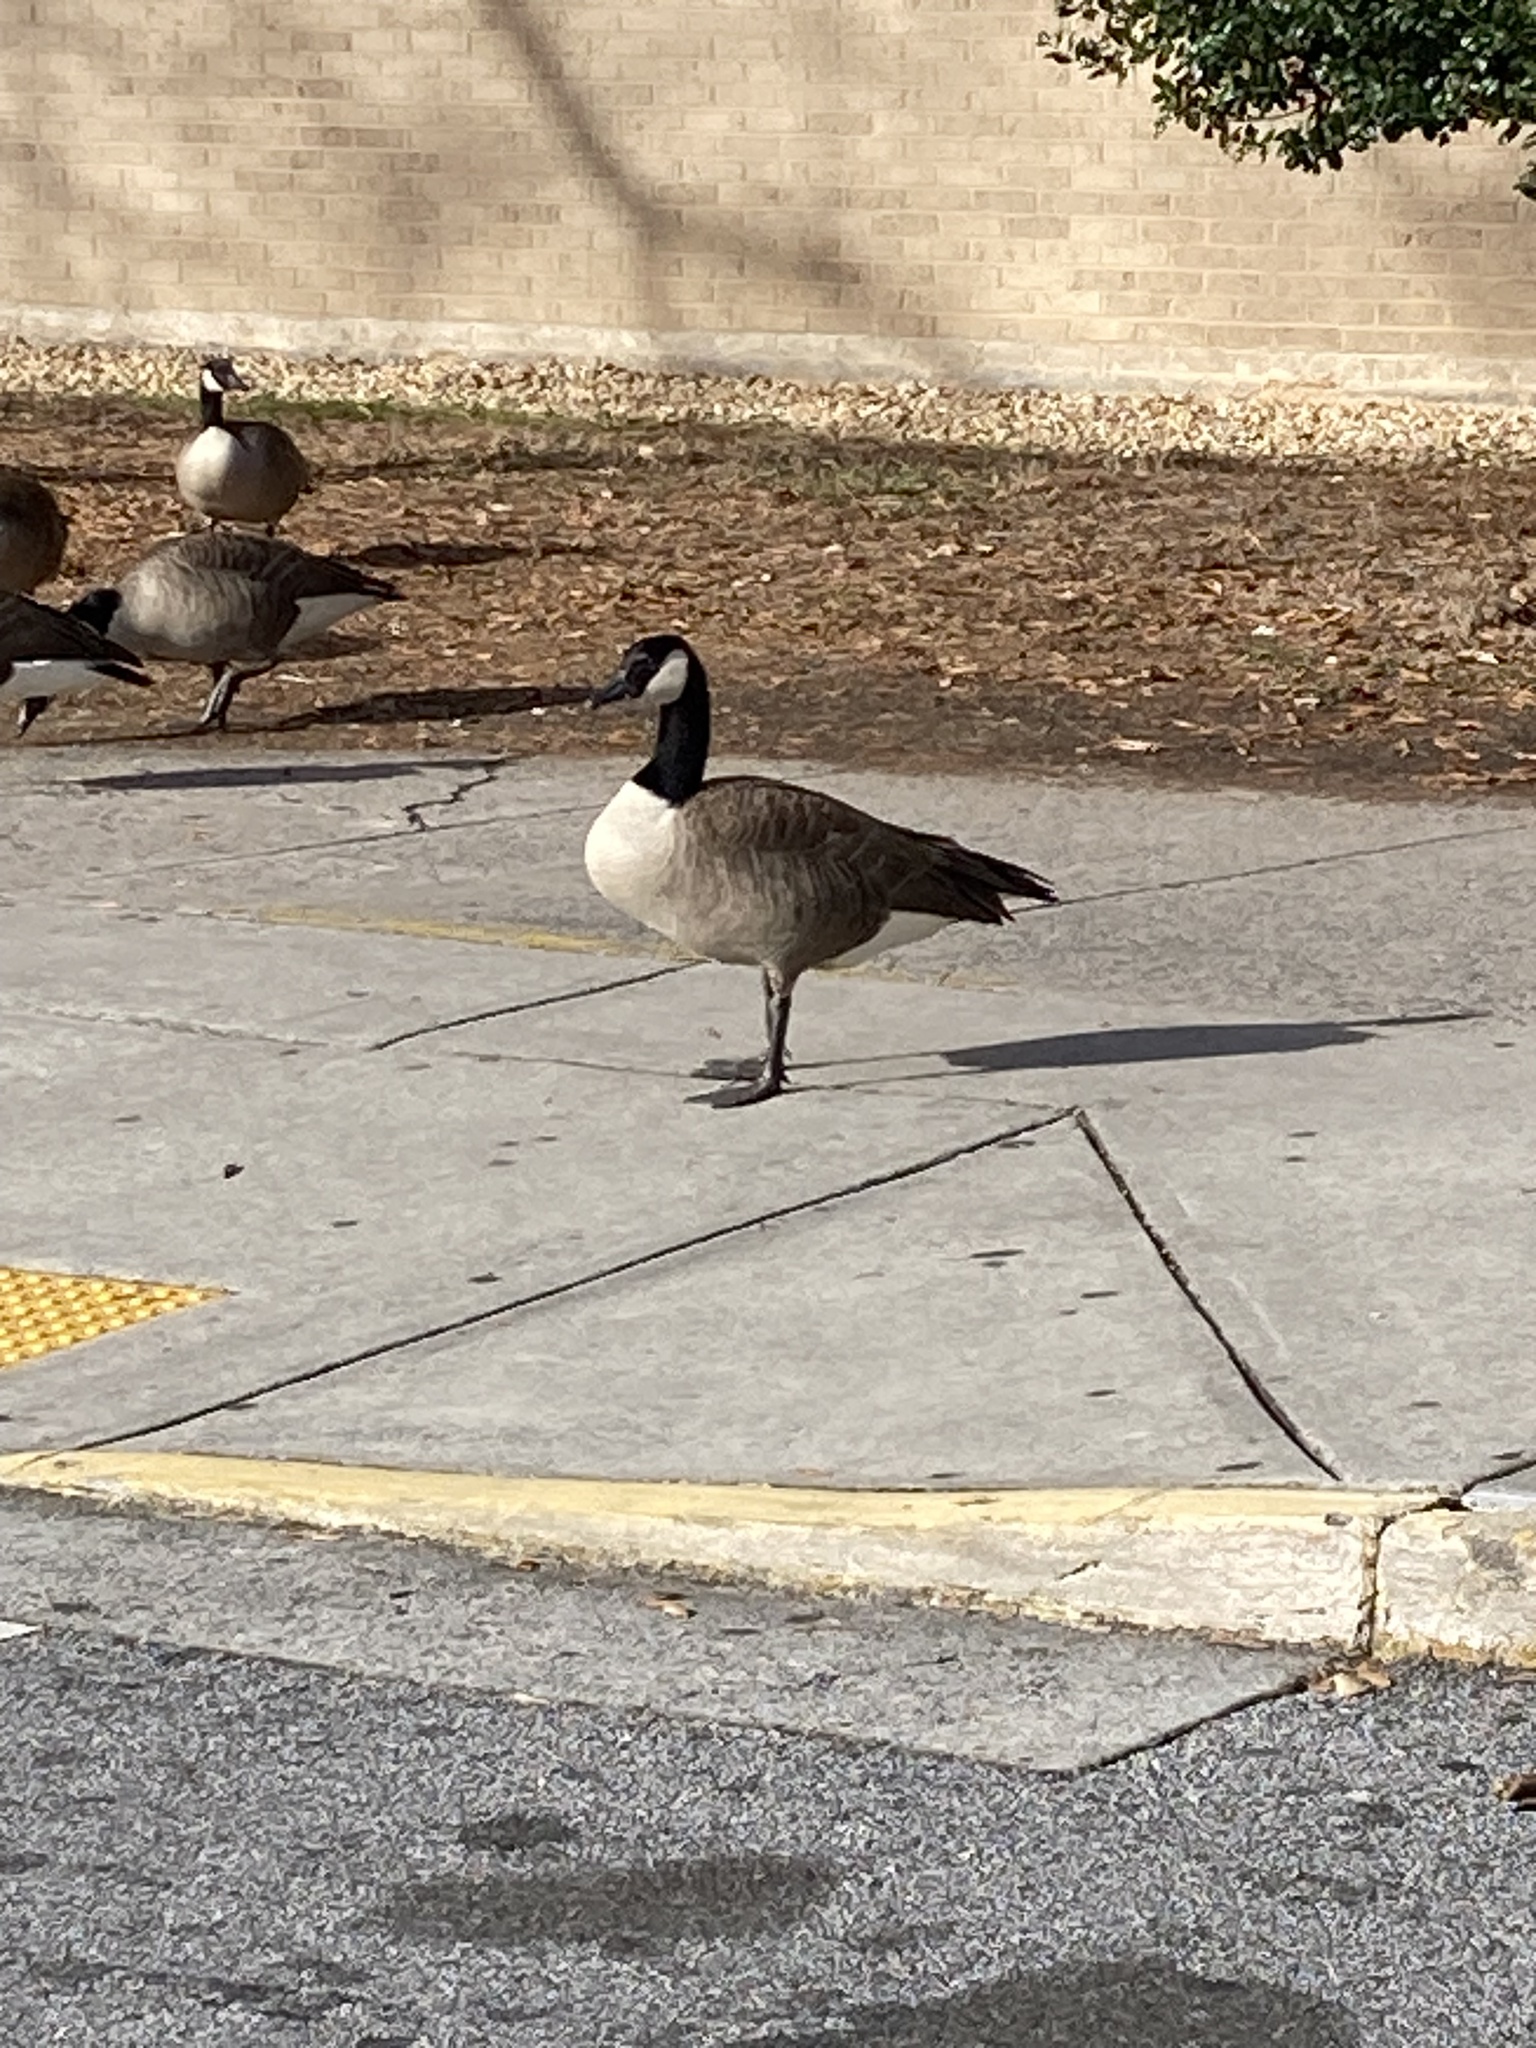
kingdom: Animalia
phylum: Chordata
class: Aves
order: Anseriformes
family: Anatidae
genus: Branta
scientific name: Branta canadensis
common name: Canada goose
